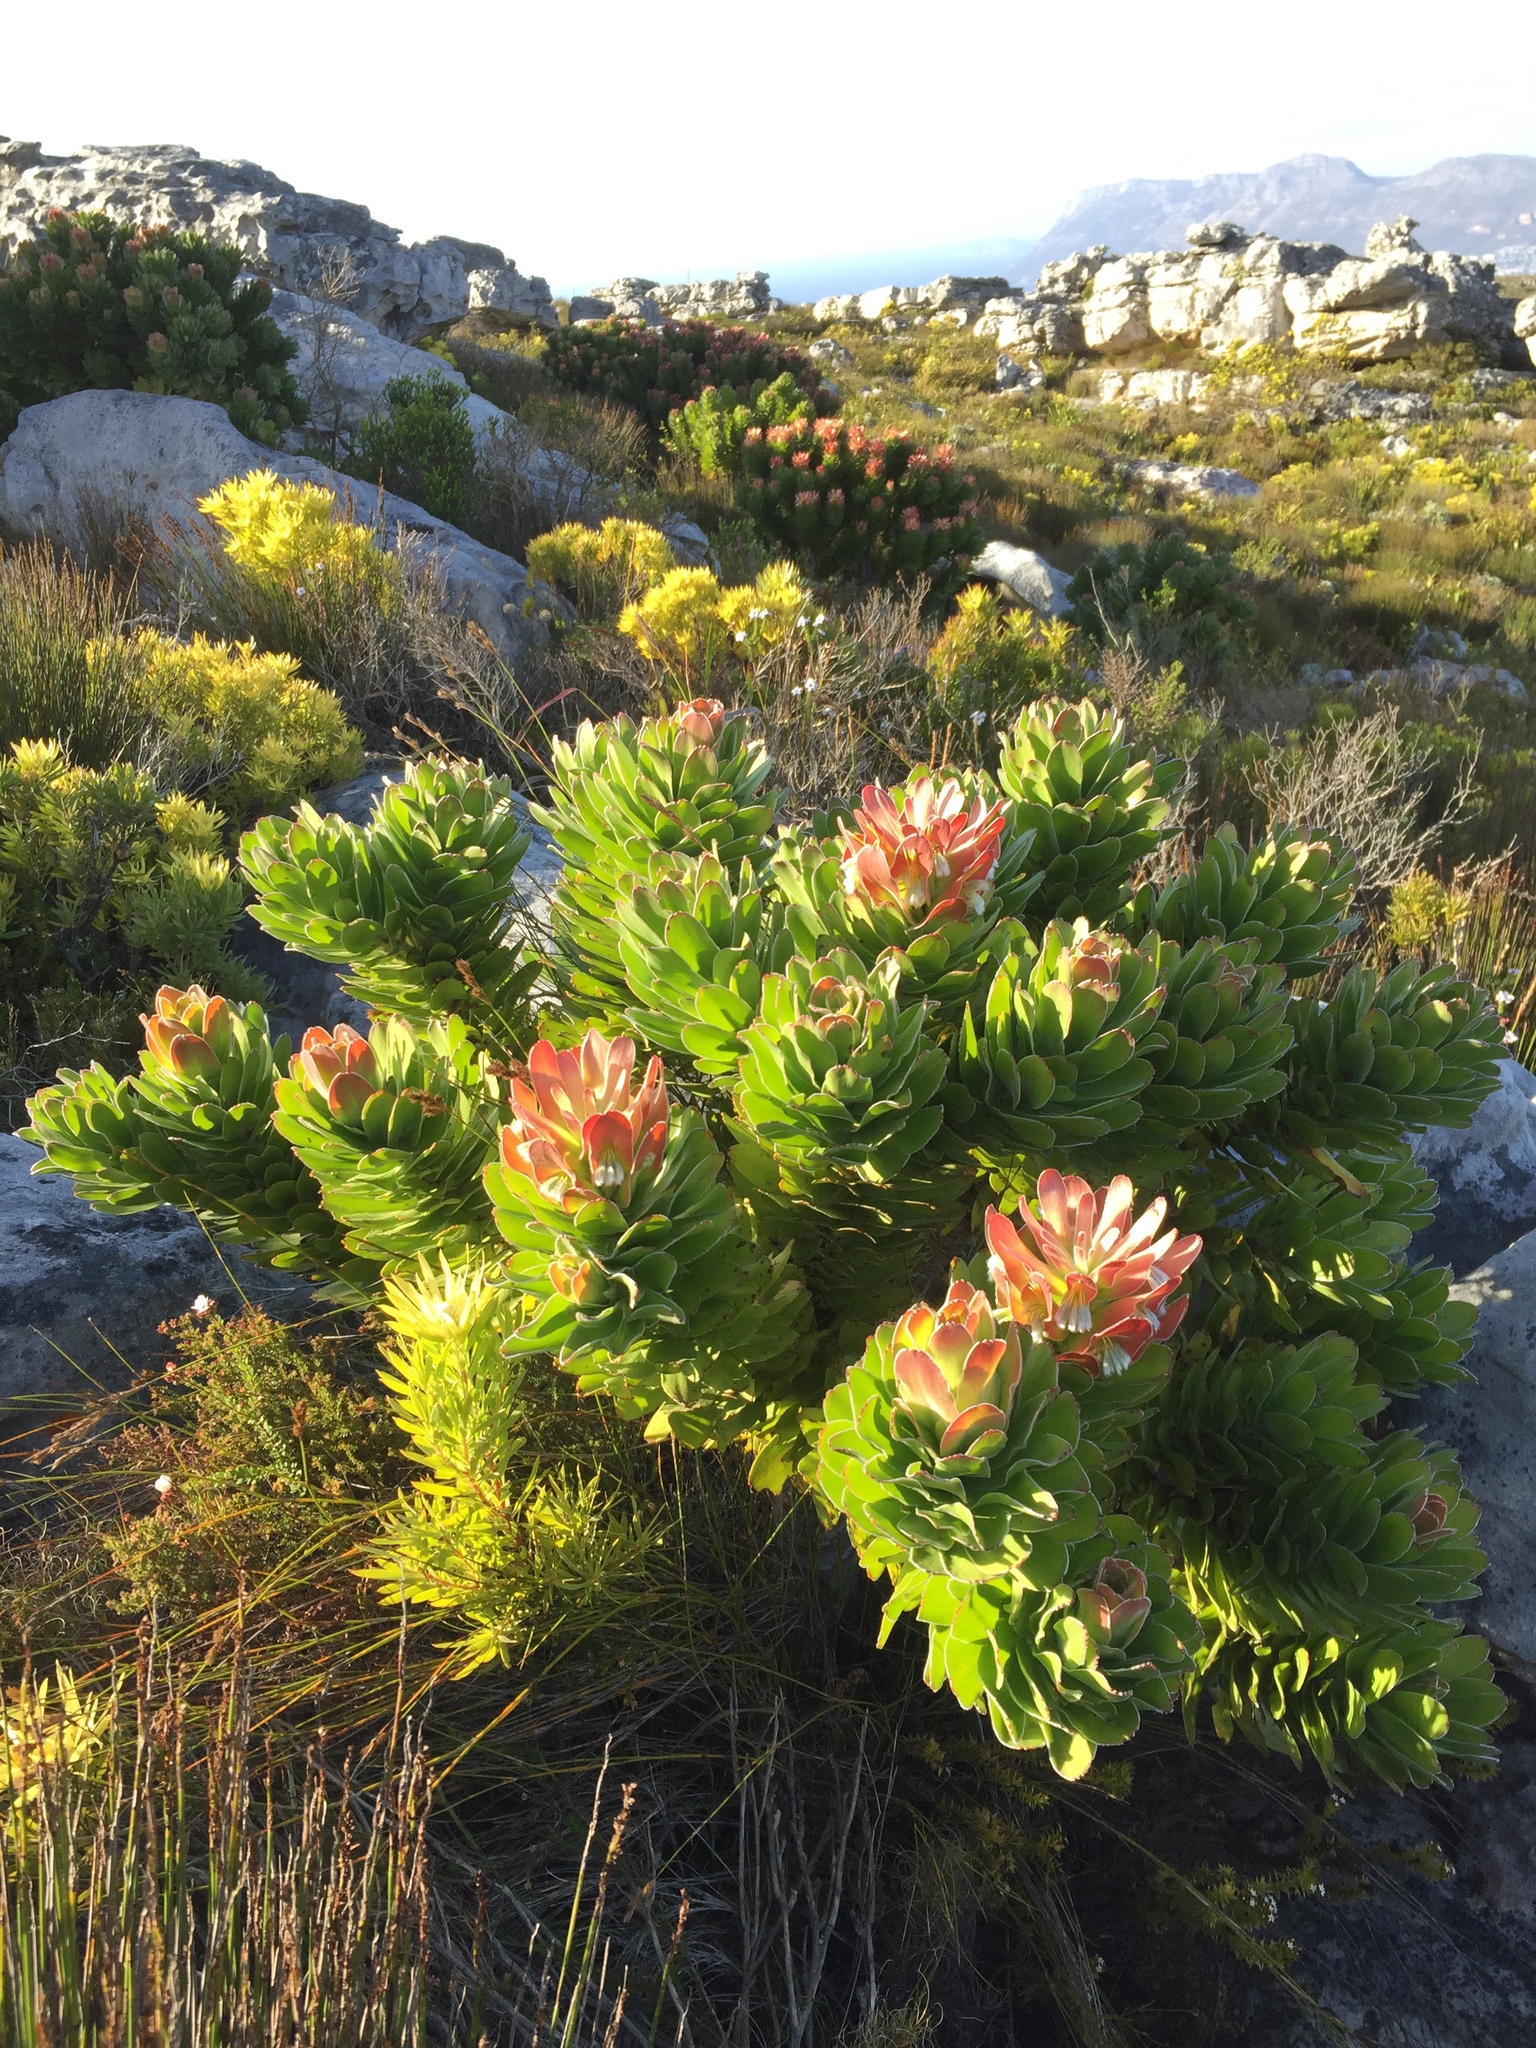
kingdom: Plantae
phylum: Tracheophyta
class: Magnoliopsida
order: Proteales
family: Proteaceae
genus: Mimetes
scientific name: Mimetes fimbriifolius
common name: Fringed bottlebrush
